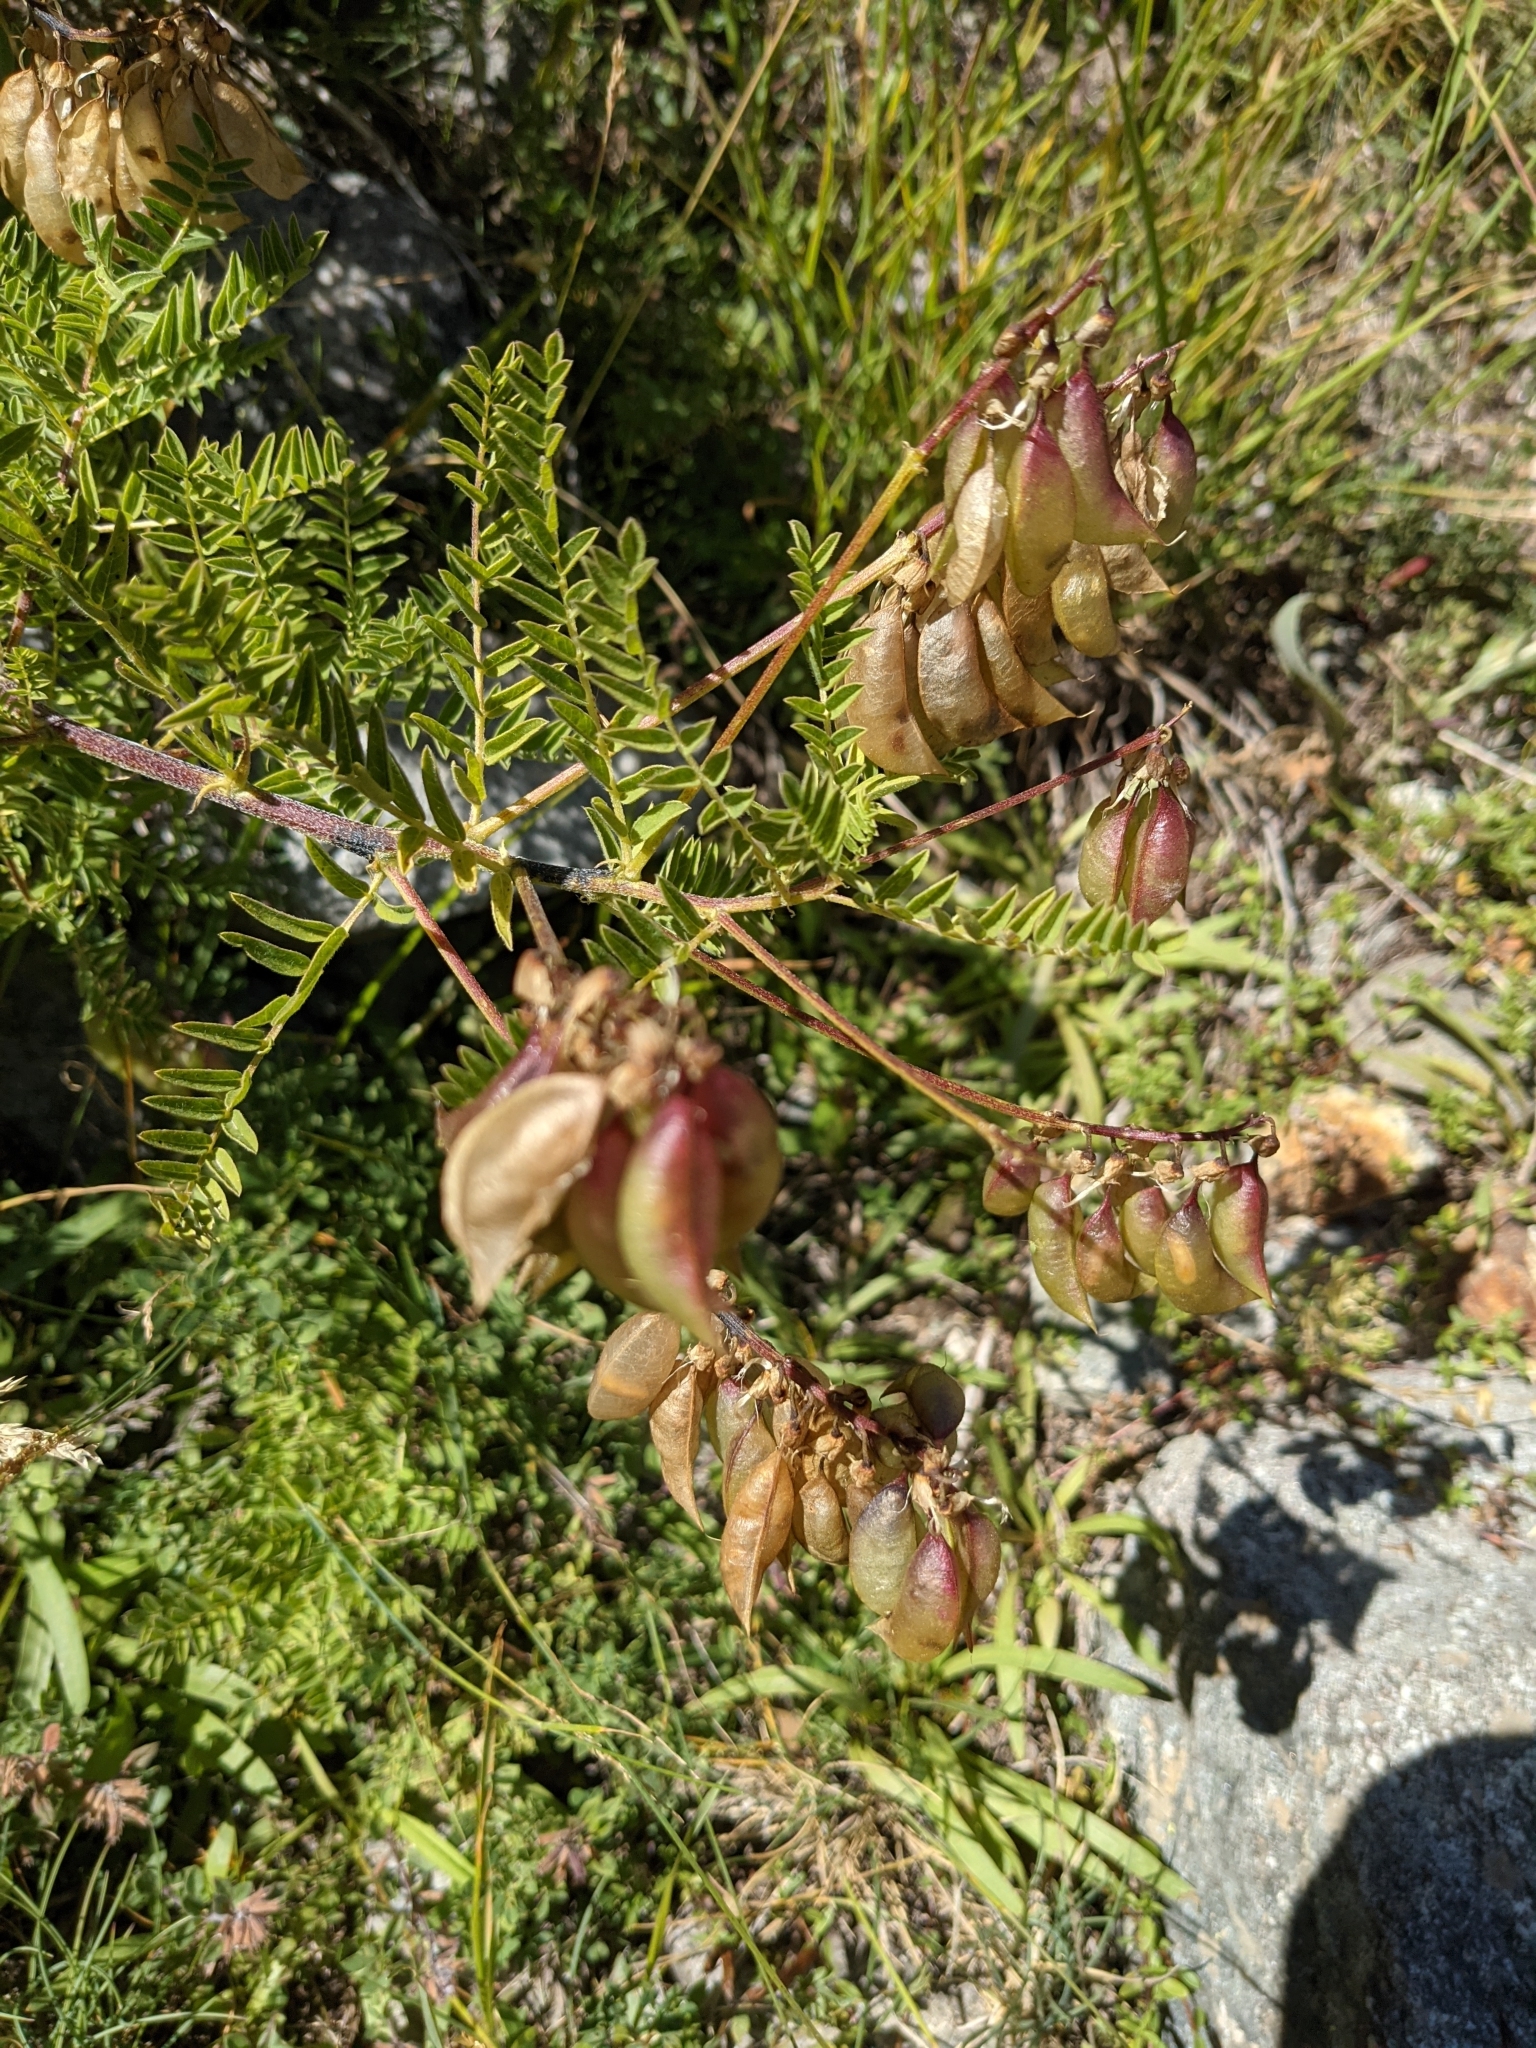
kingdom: Plantae
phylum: Tracheophyta
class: Magnoliopsida
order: Fabales
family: Fabaceae
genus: Astragalus
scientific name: Astragalus penduliflorus
